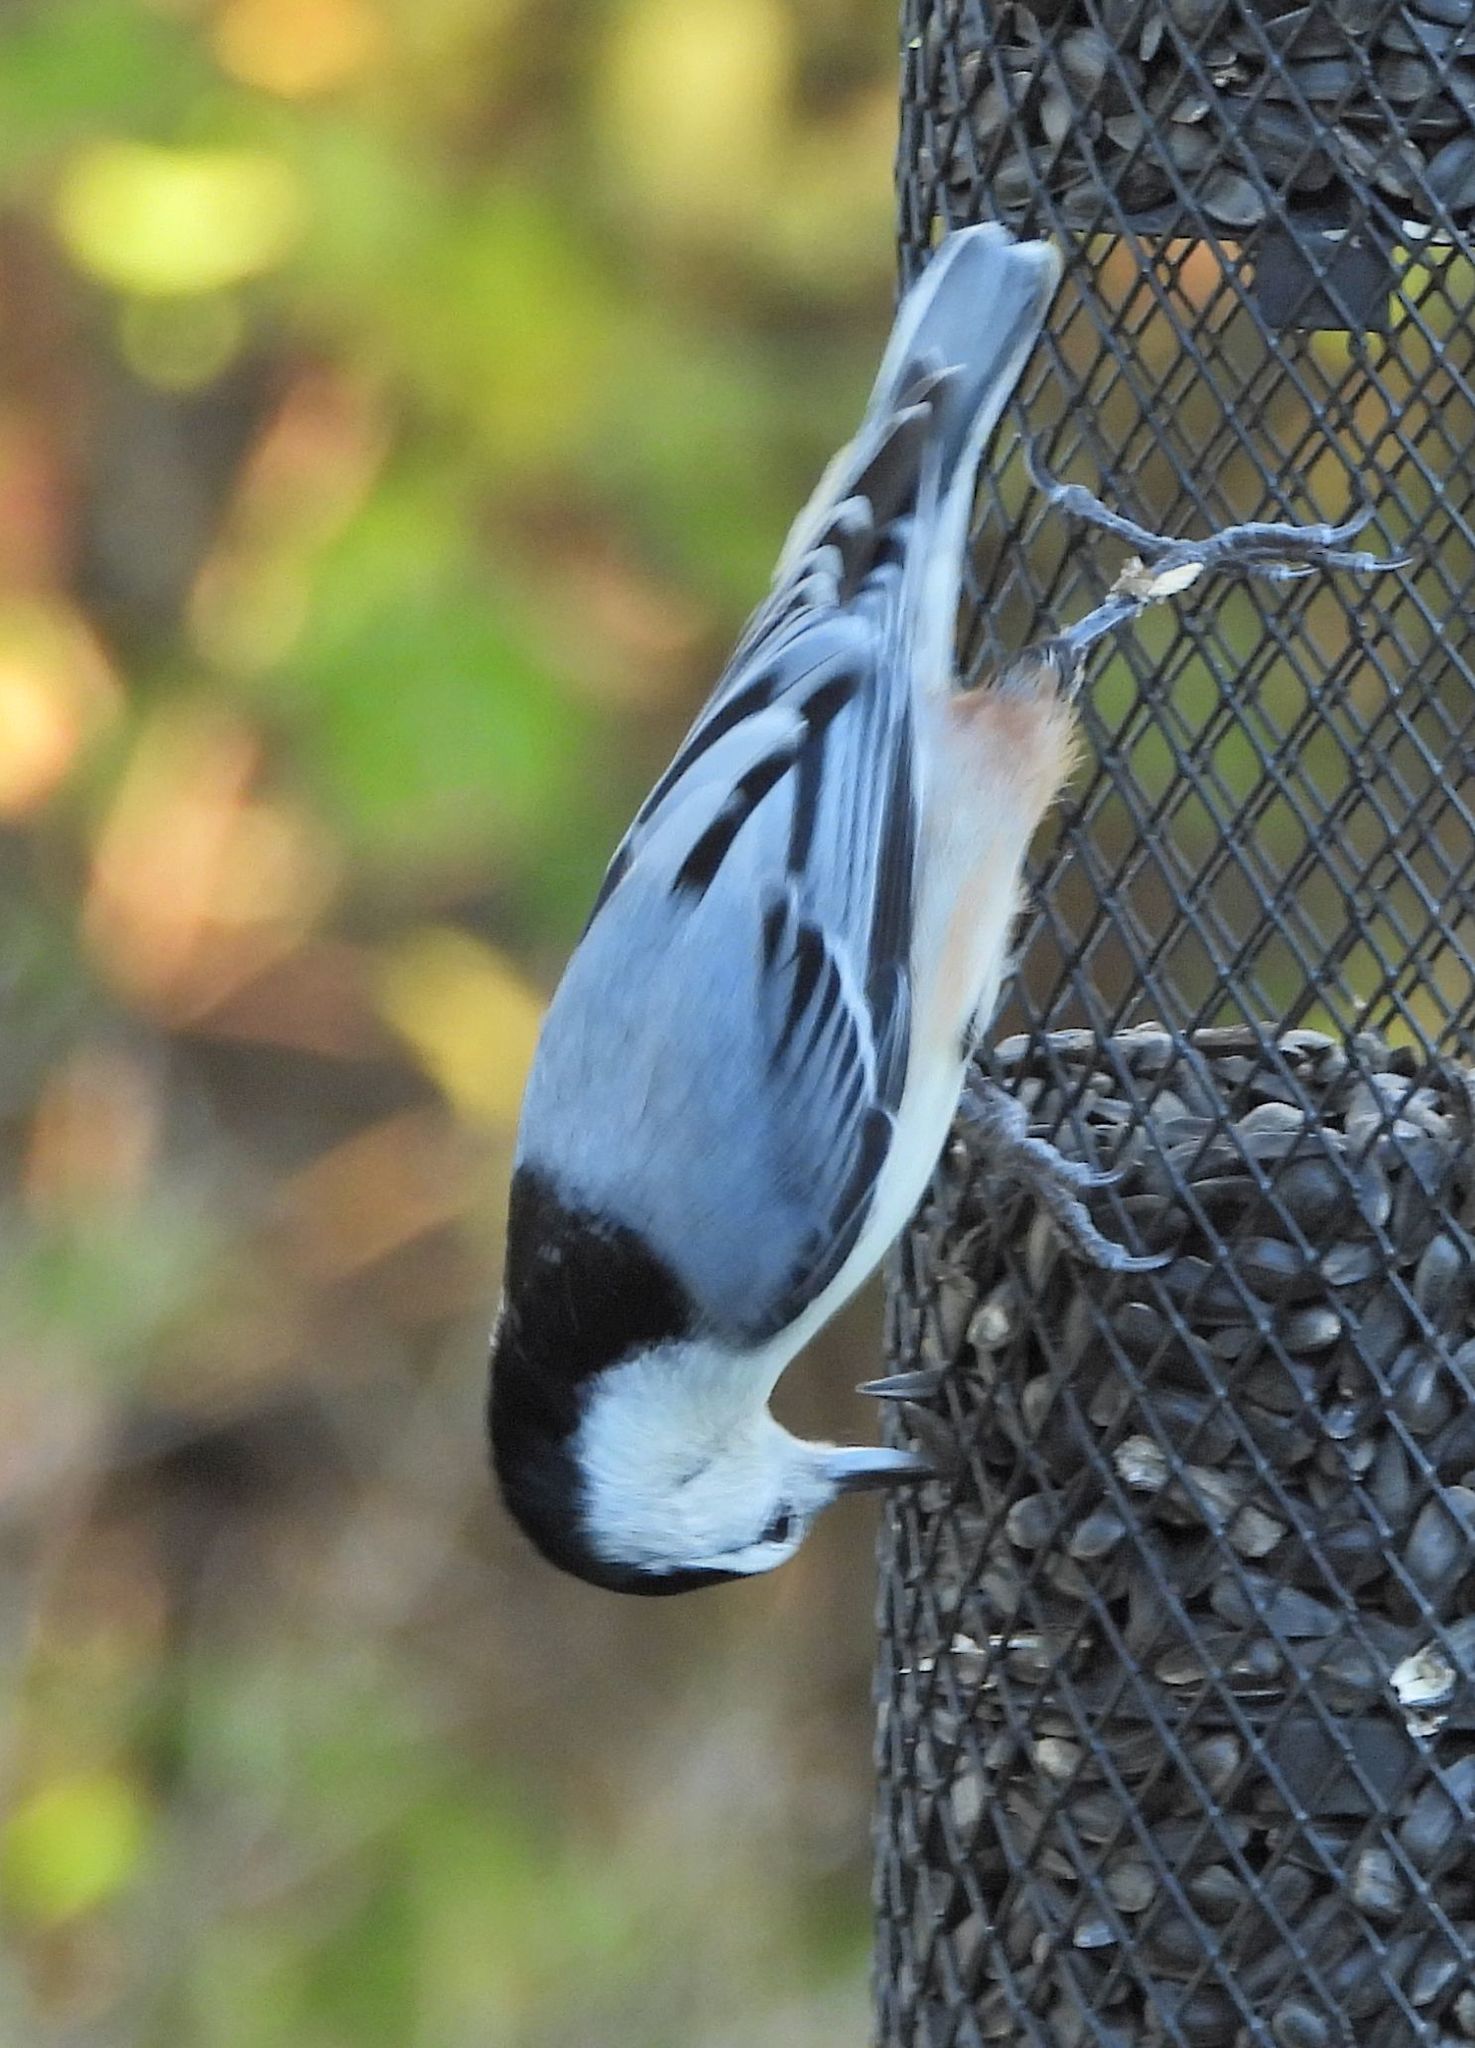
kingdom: Animalia
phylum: Chordata
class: Aves
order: Passeriformes
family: Sittidae
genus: Sitta
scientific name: Sitta carolinensis
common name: White-breasted nuthatch
